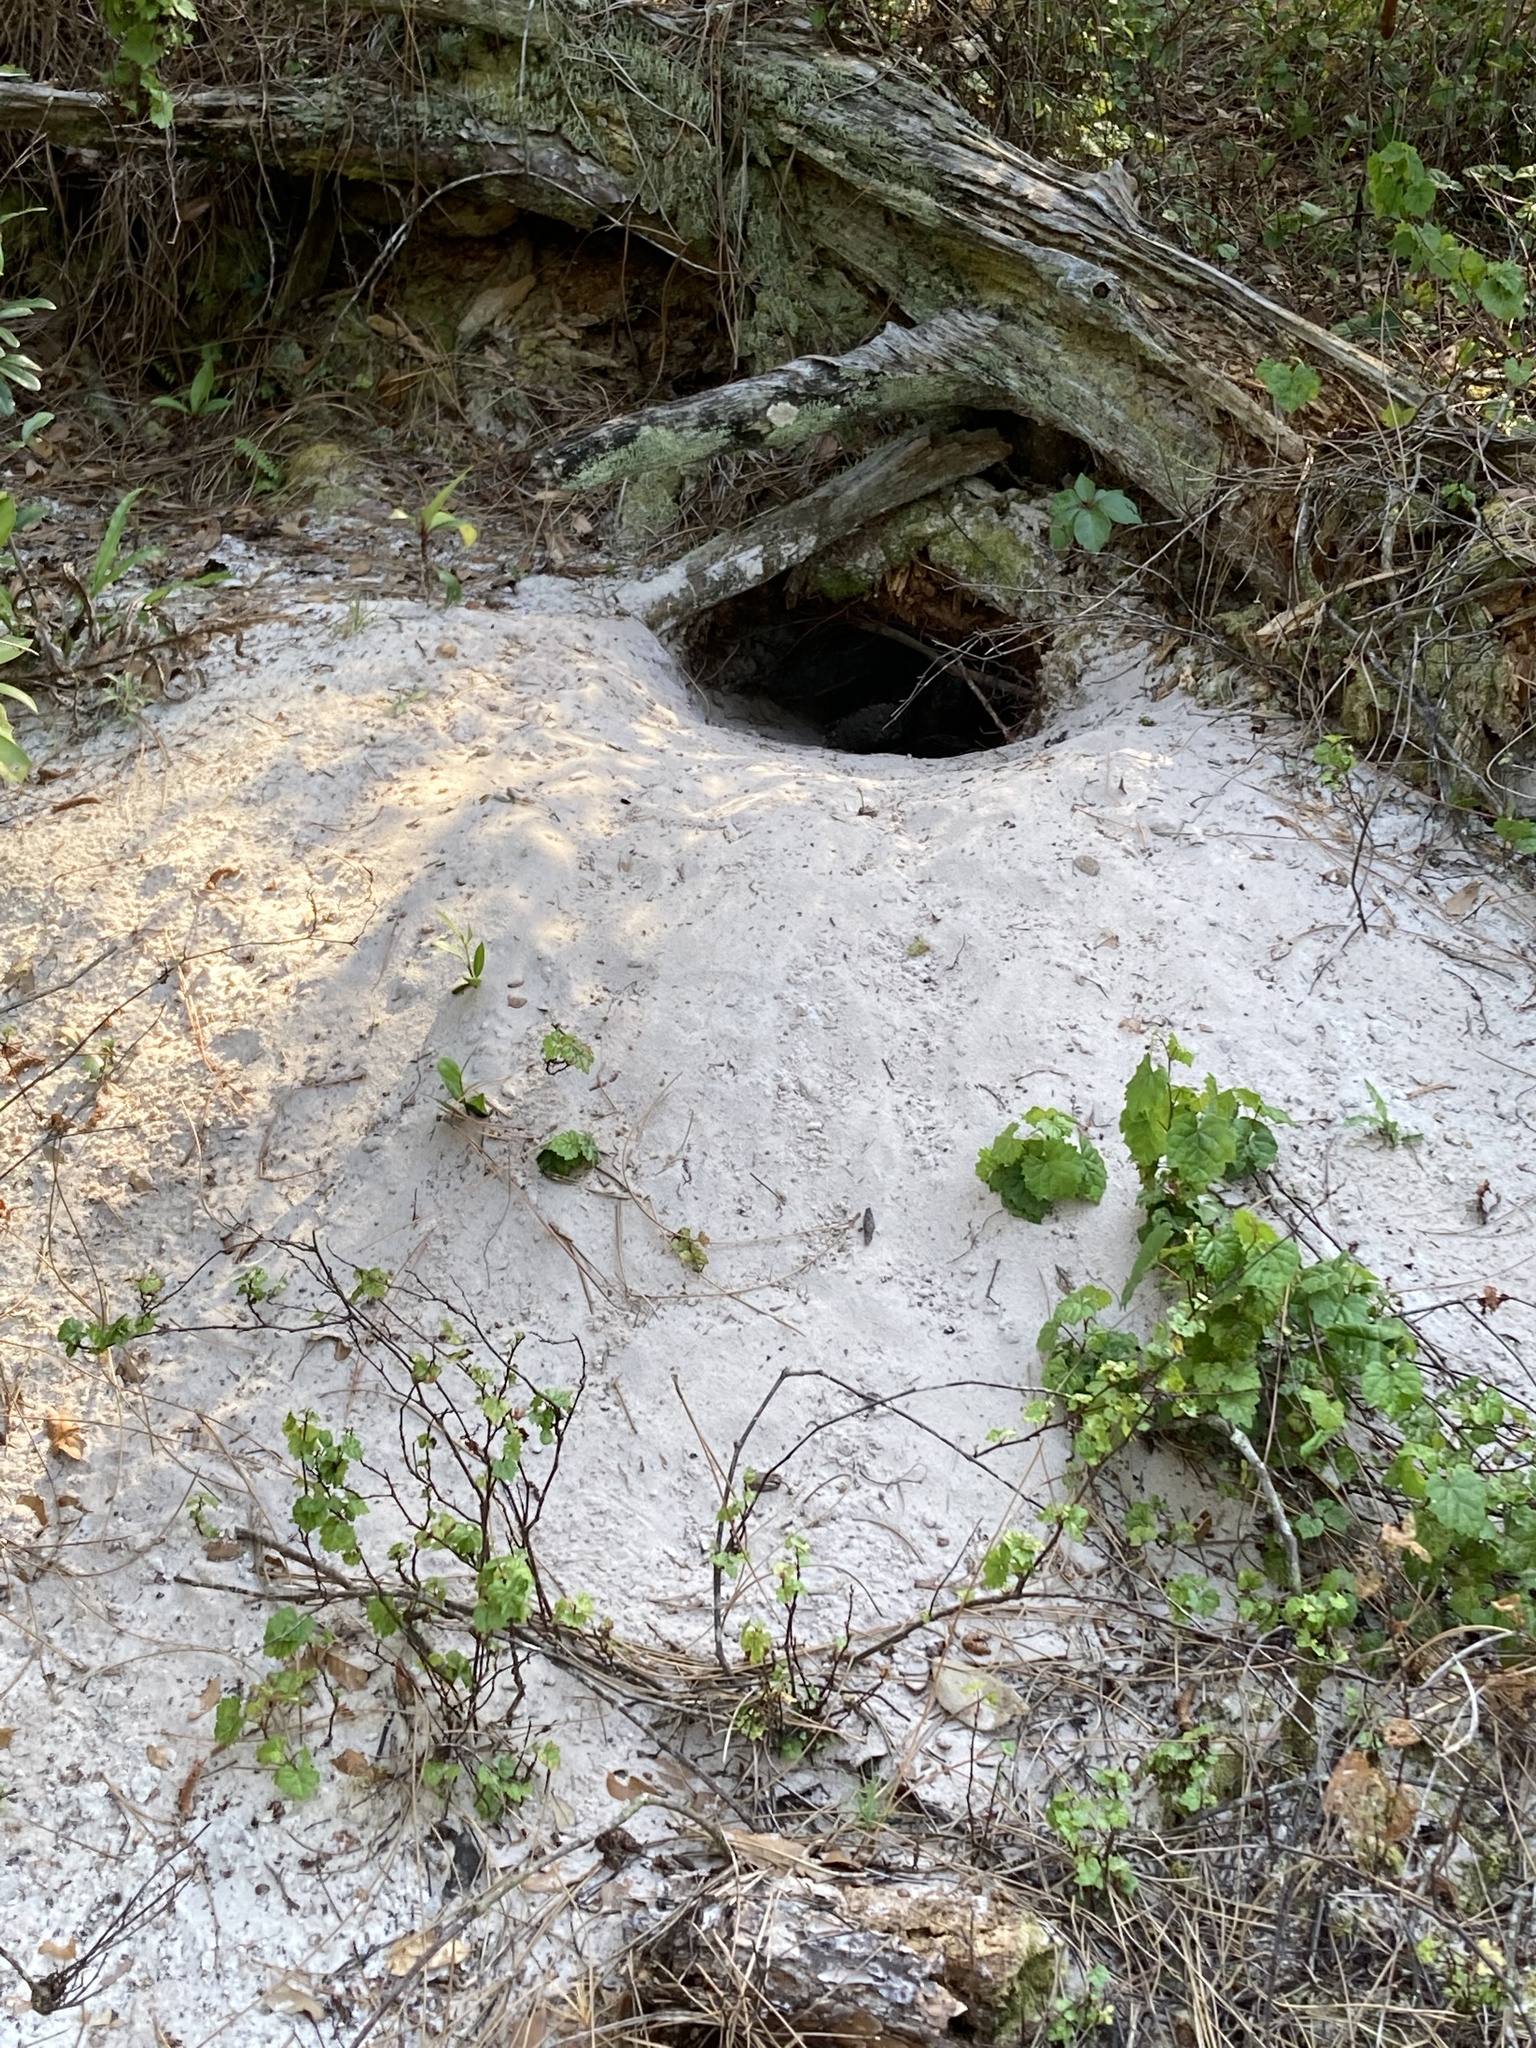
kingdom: Animalia
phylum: Chordata
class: Testudines
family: Testudinidae
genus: Gopherus
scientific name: Gopherus polyphemus
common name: Florida gopher tortoise
